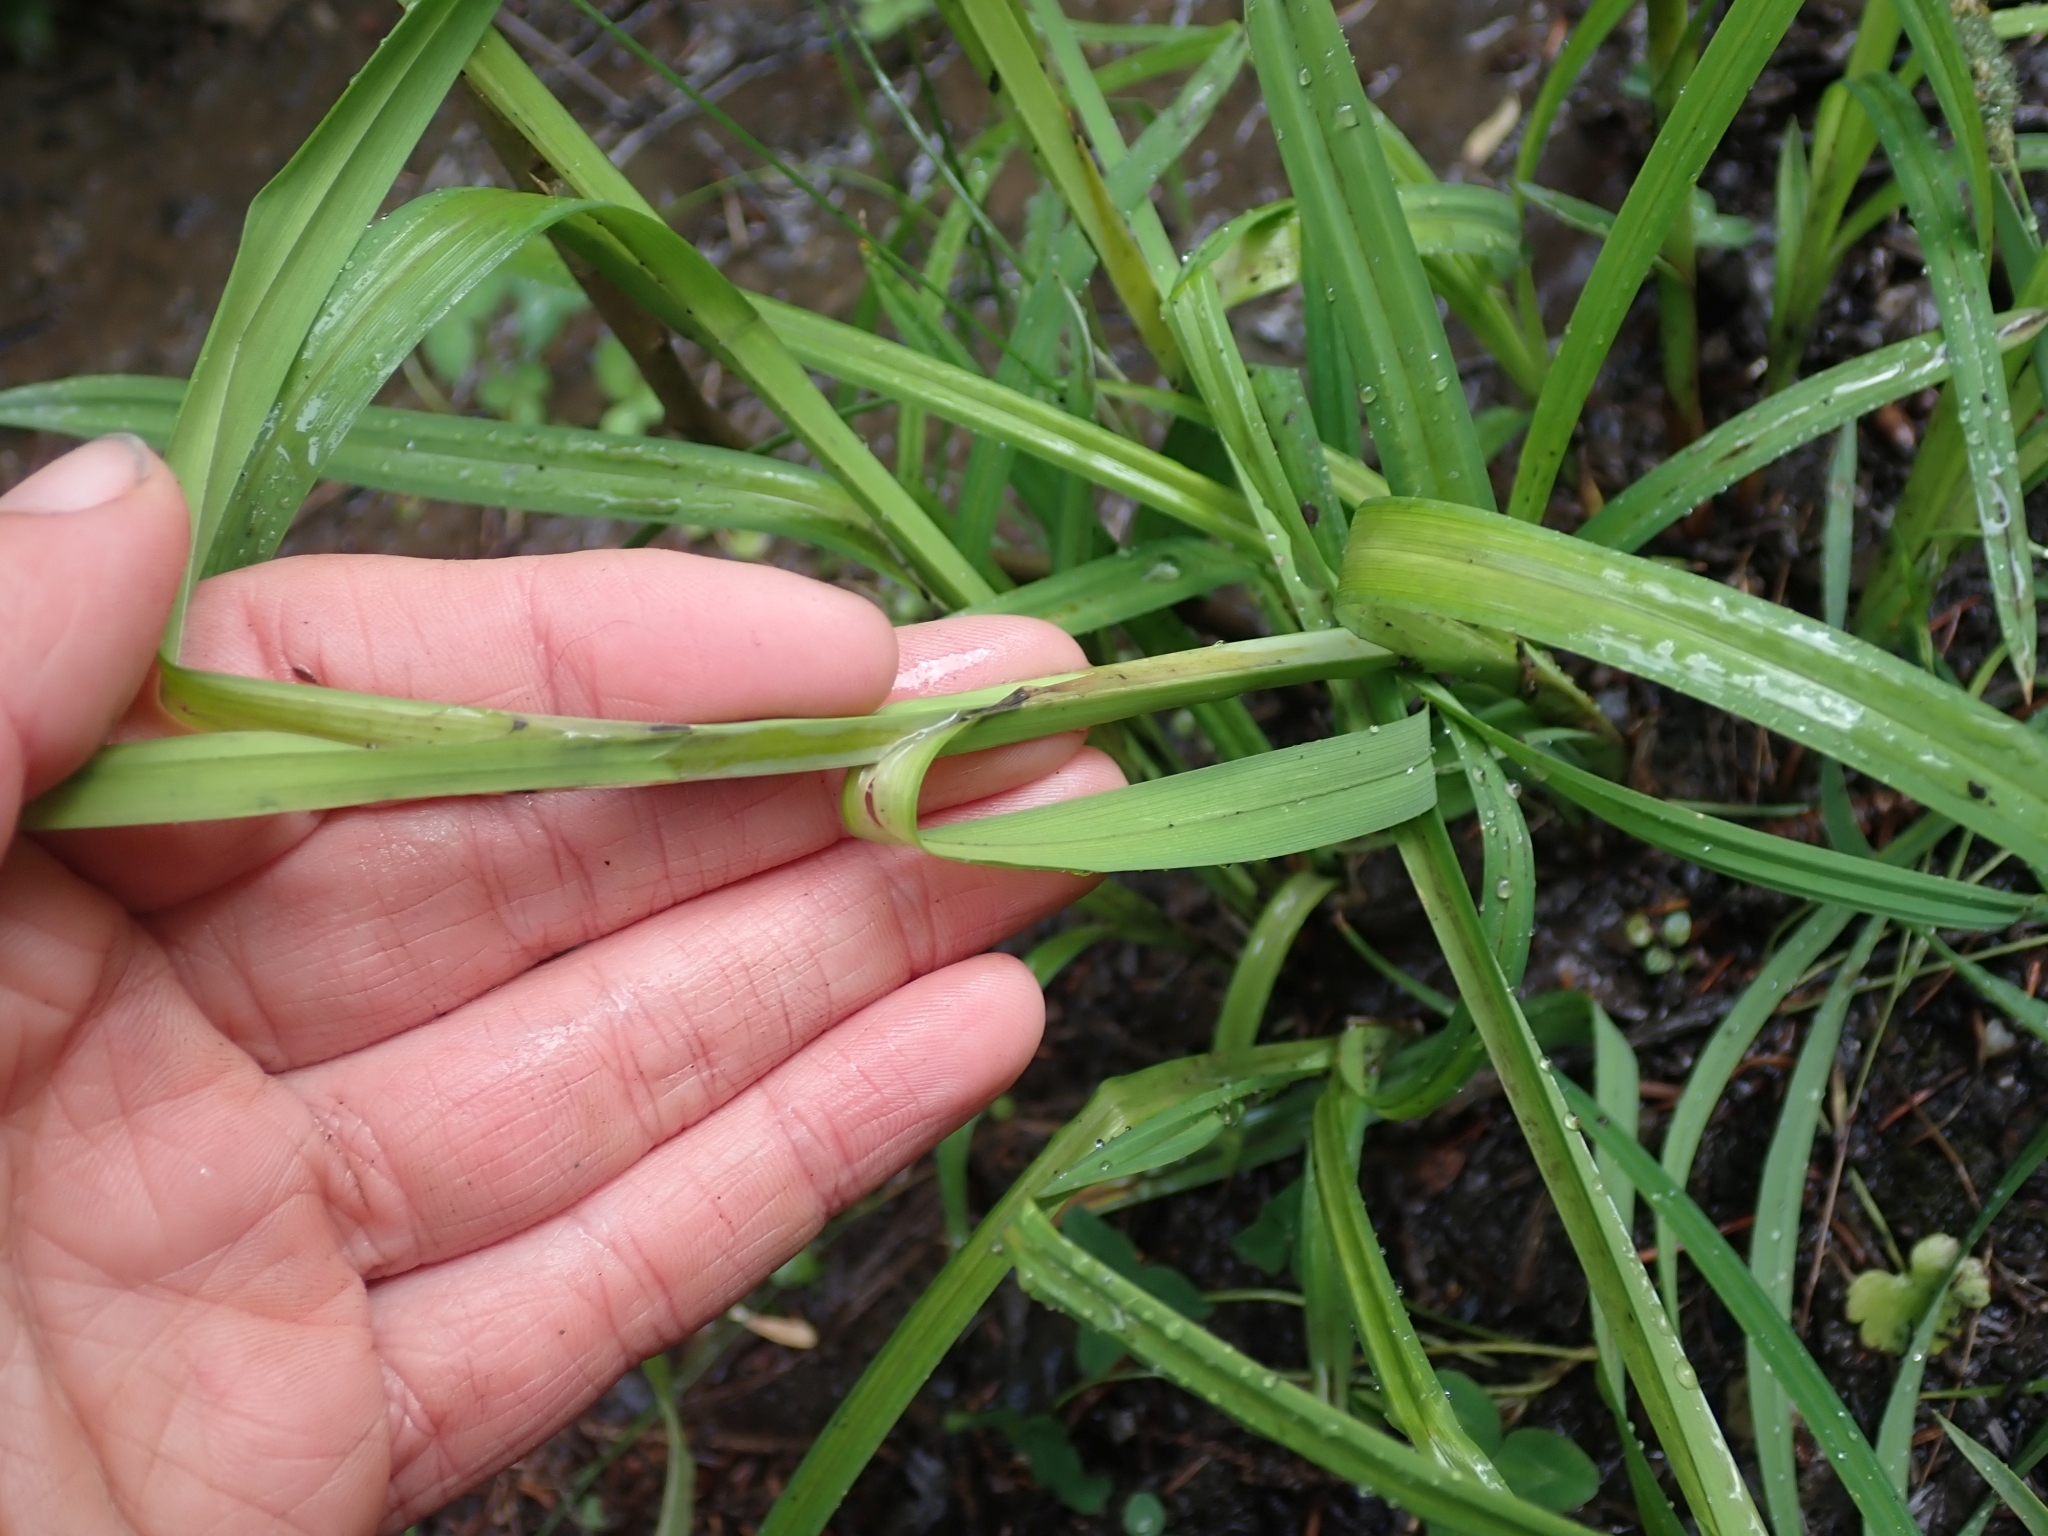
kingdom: Plantae
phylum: Tracheophyta
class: Liliopsida
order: Poales
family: Cyperaceae
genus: Carex
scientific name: Carex mertensii
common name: Mertens' sedge
